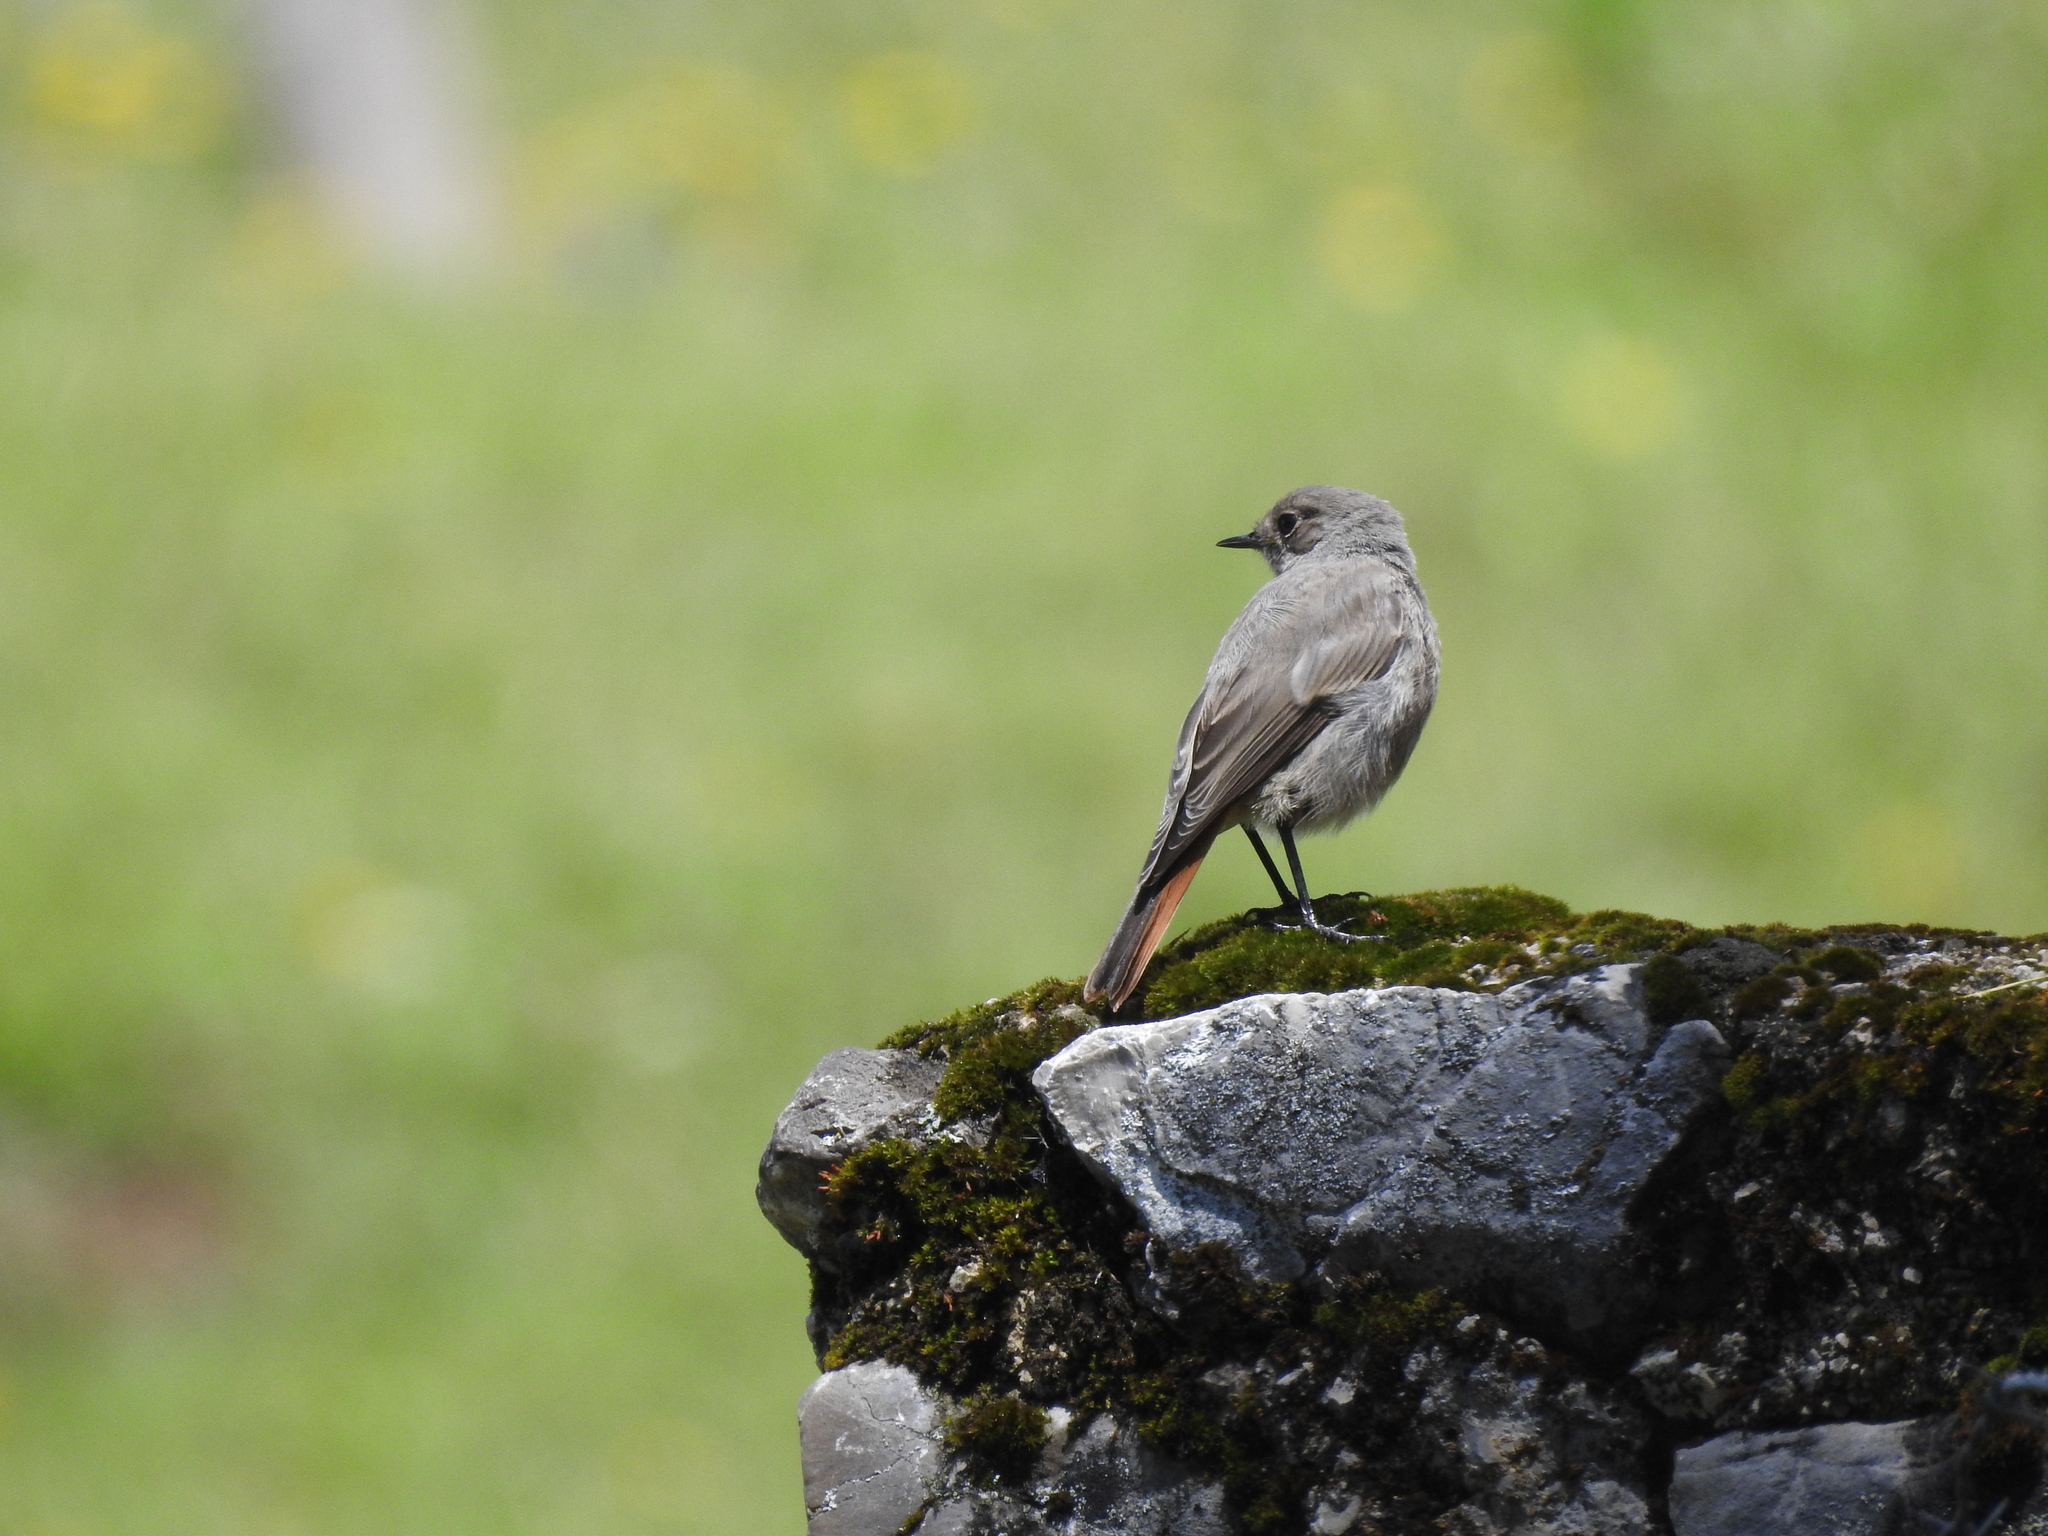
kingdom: Animalia
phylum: Chordata
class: Aves
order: Passeriformes
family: Muscicapidae
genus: Phoenicurus
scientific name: Phoenicurus ochruros
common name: Black redstart
